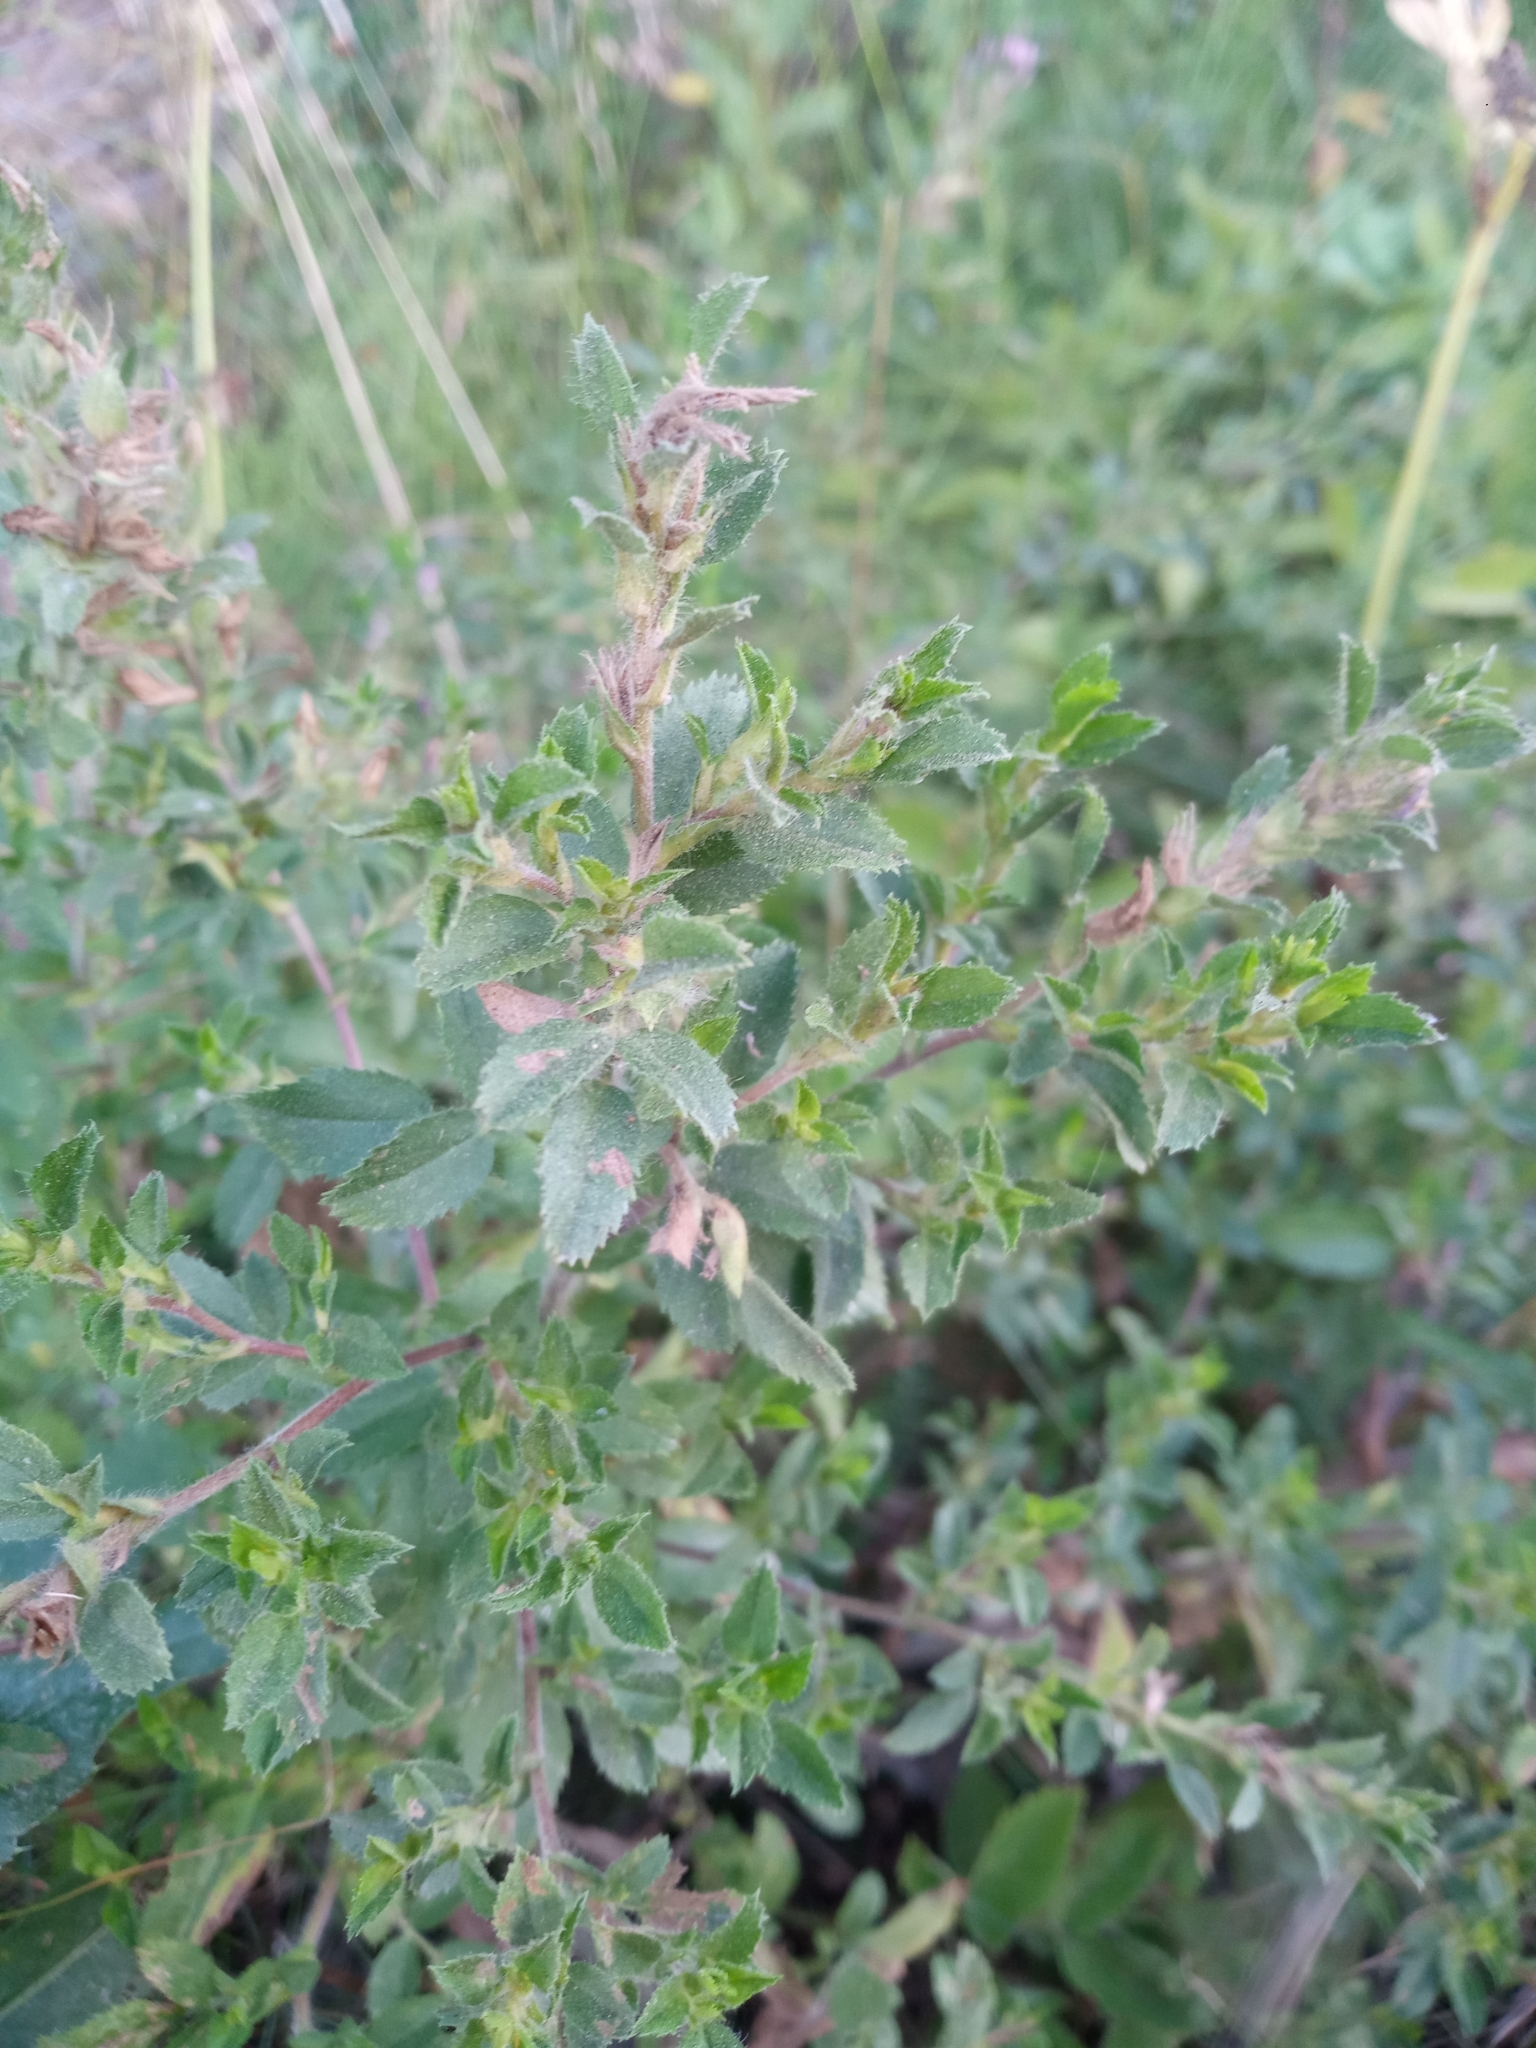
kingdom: Plantae
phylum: Tracheophyta
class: Magnoliopsida
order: Fabales
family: Fabaceae
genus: Ononis
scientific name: Ononis arvensis
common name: Field restharrow
